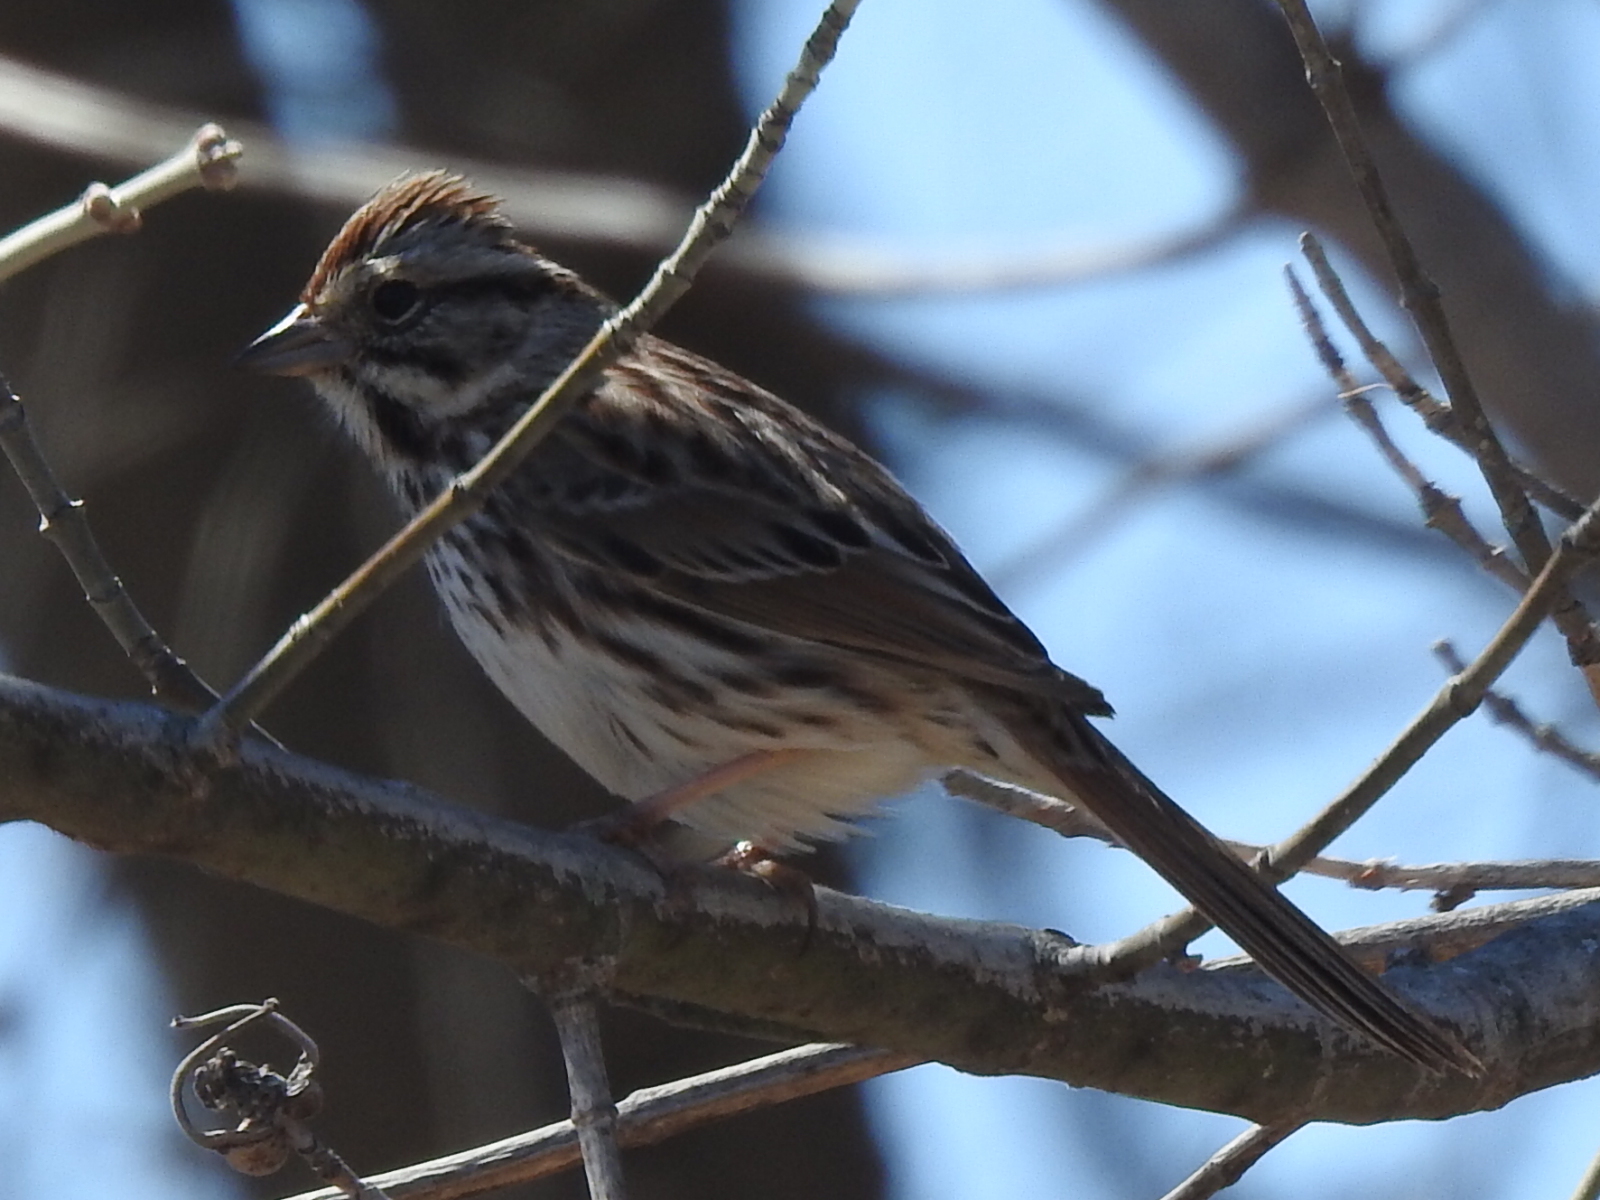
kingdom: Animalia
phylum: Chordata
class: Aves
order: Passeriformes
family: Passerellidae
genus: Melospiza
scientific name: Melospiza melodia
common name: Song sparrow
